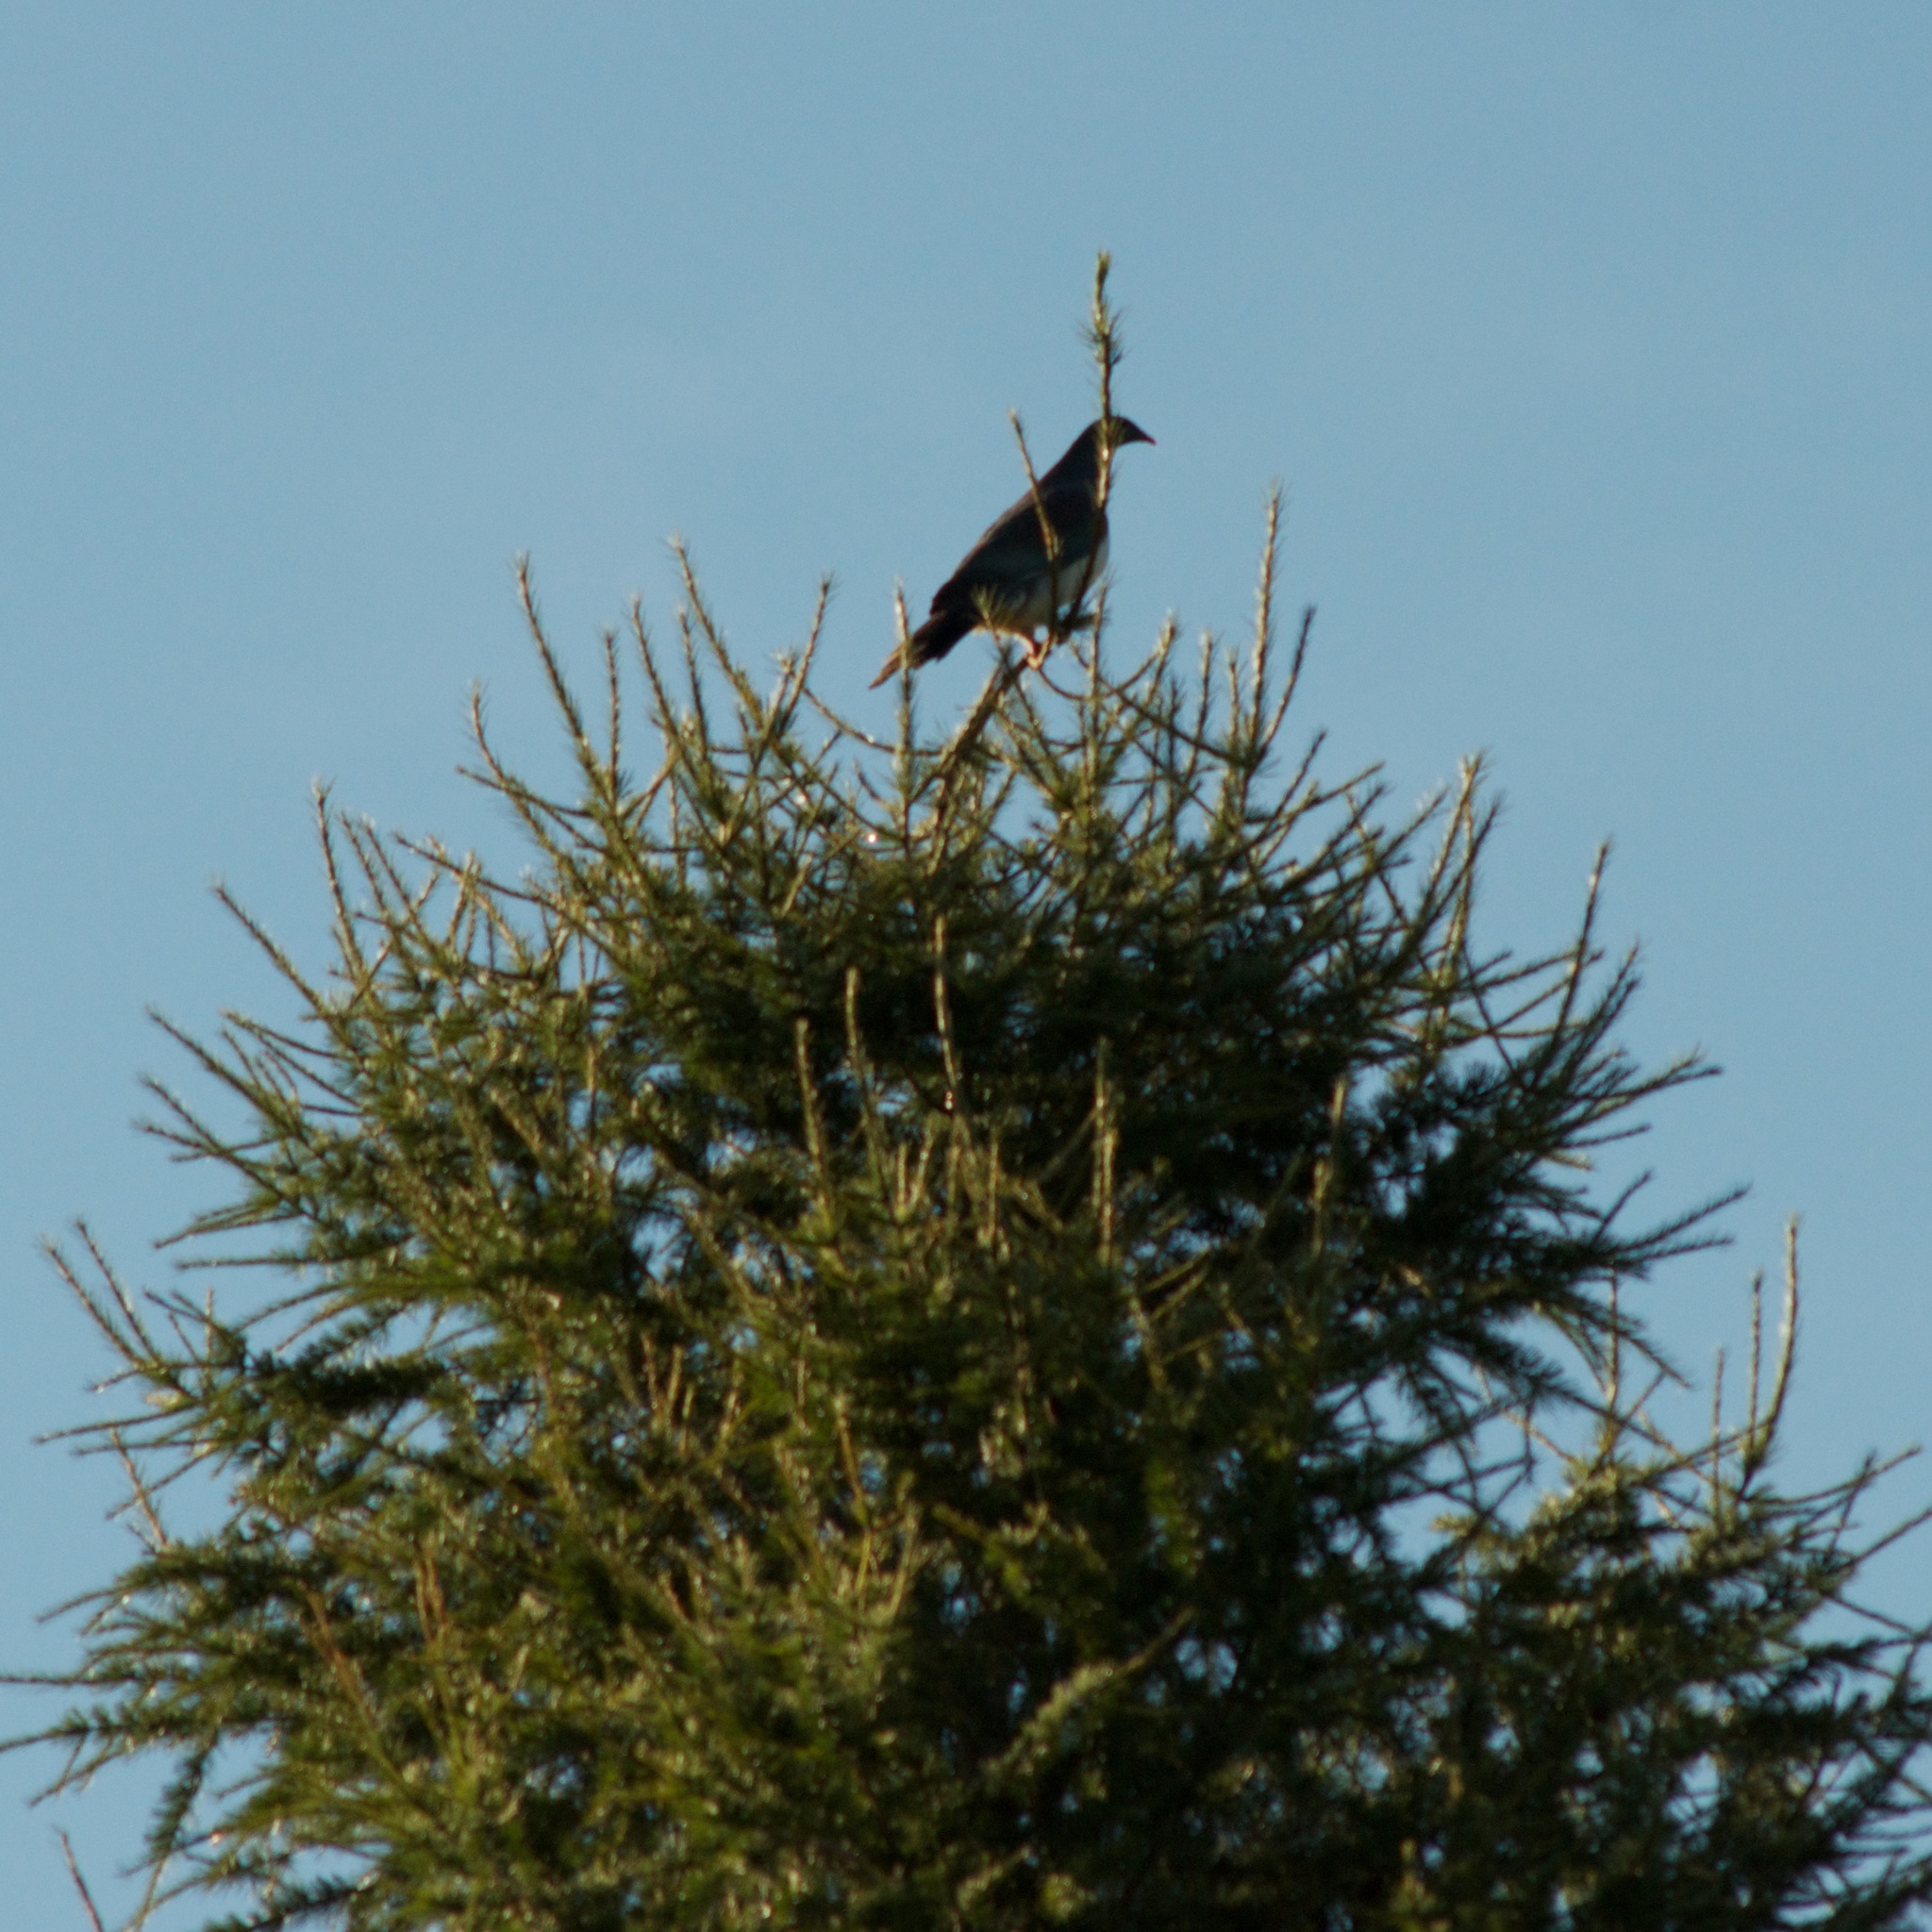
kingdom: Animalia
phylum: Chordata
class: Aves
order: Columbiformes
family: Columbidae
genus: Hemiphaga
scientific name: Hemiphaga novaeseelandiae
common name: New zealand pigeon
